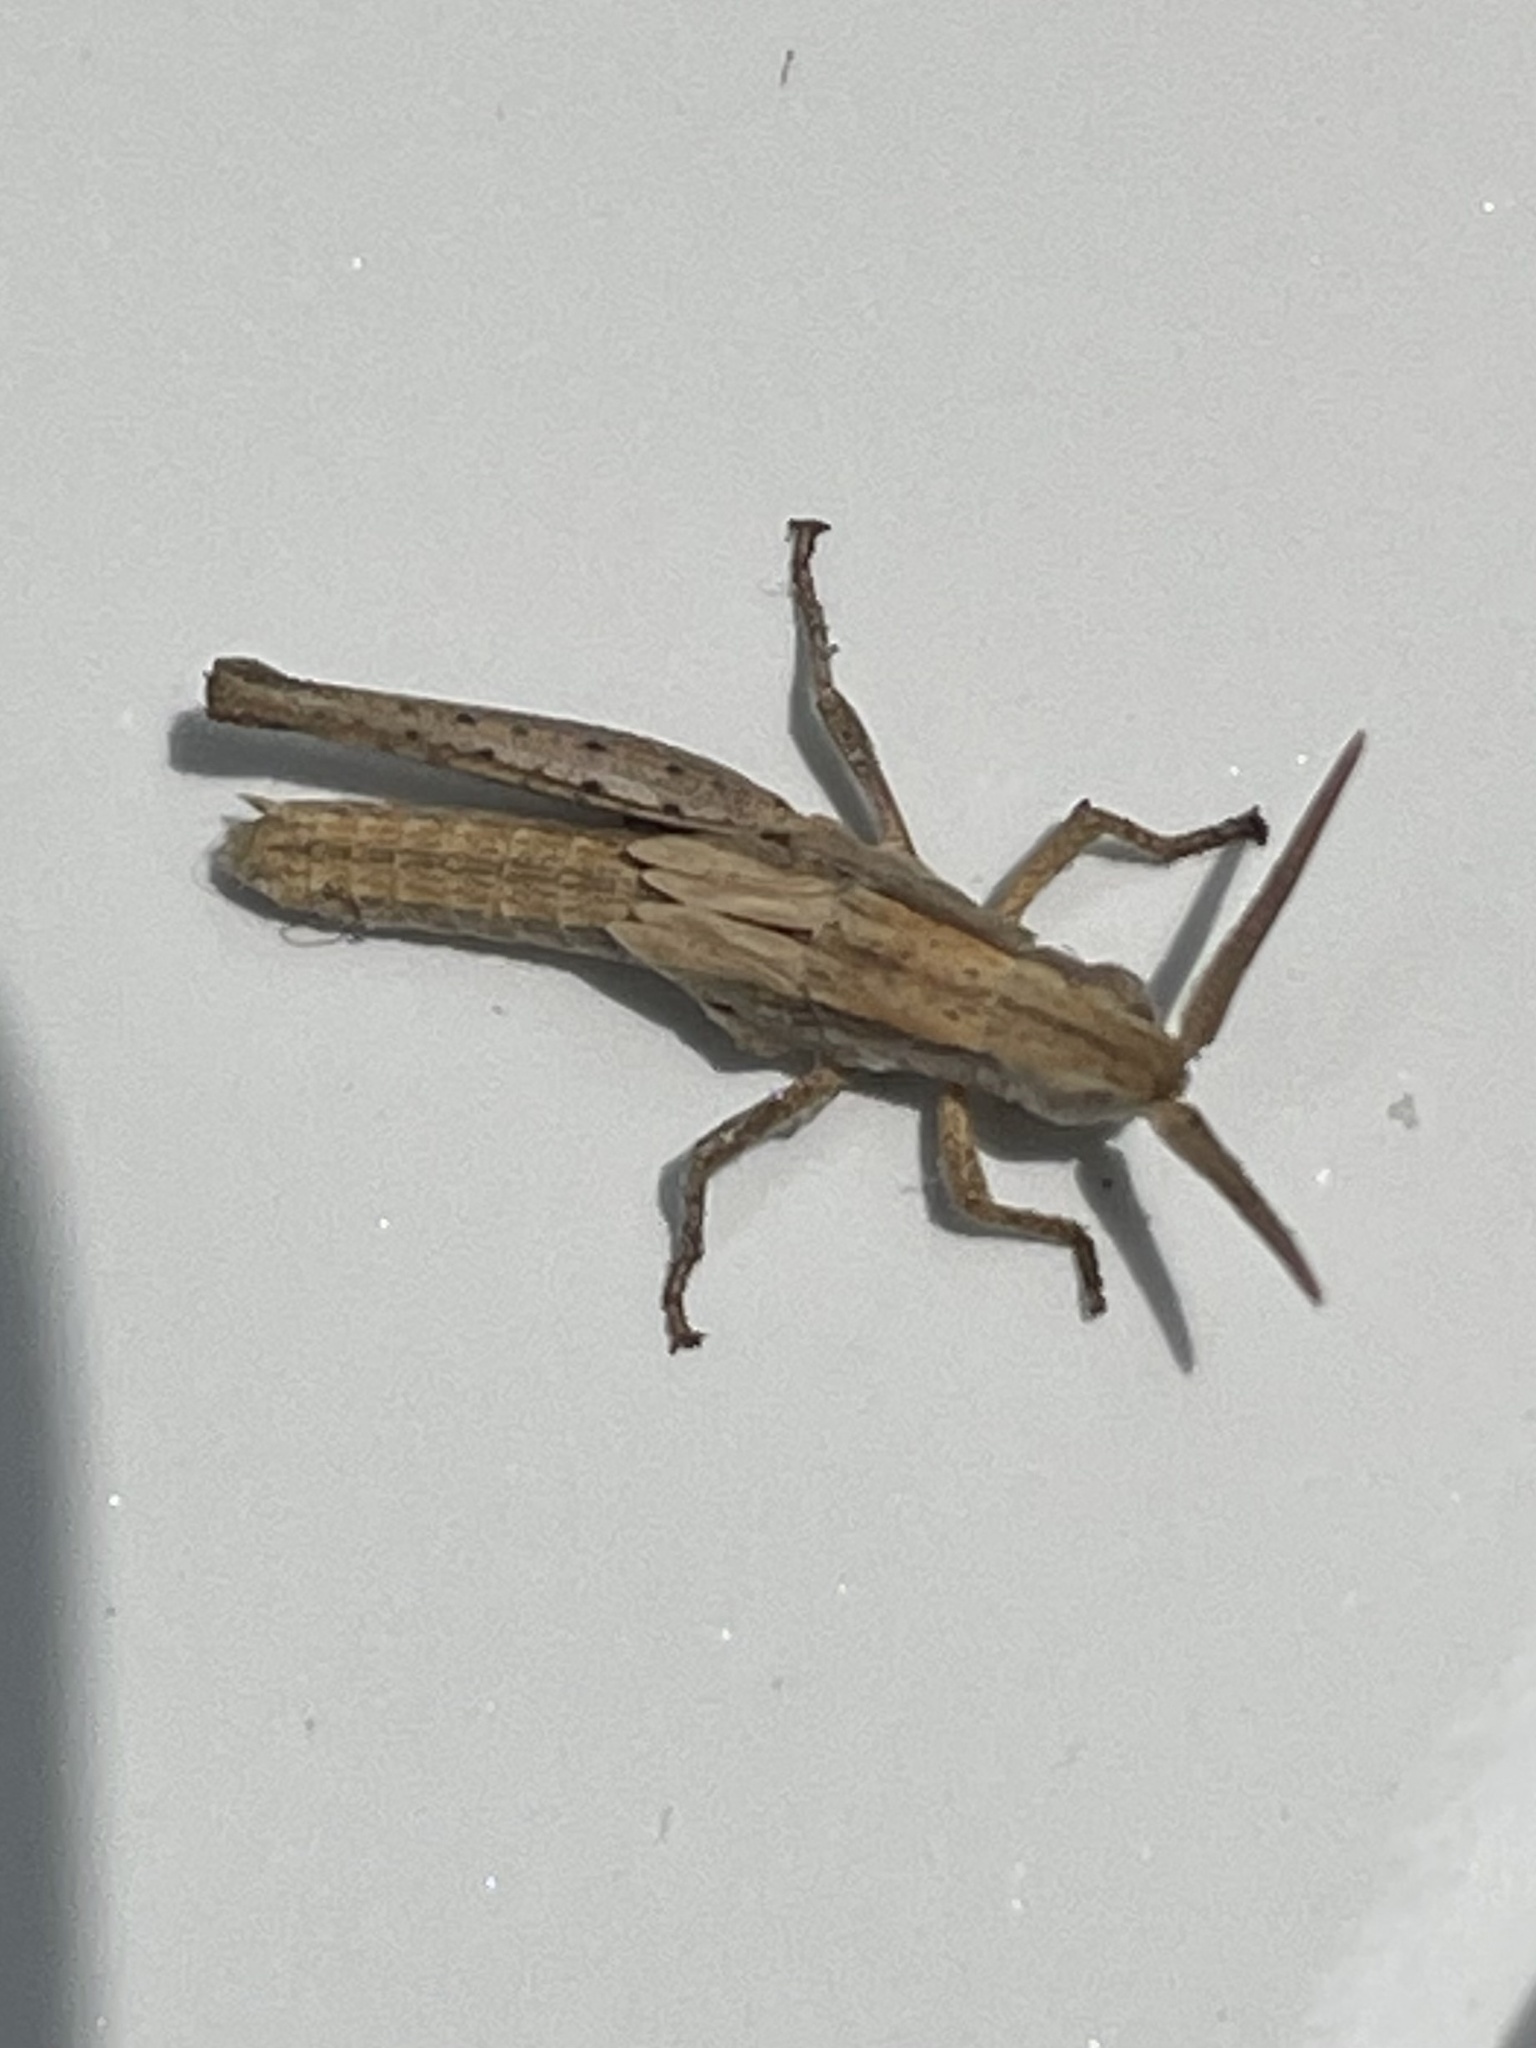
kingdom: Animalia
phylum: Arthropoda
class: Insecta
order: Orthoptera
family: Acrididae
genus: Opeia
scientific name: Opeia obscura
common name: Obscure grasshopper
